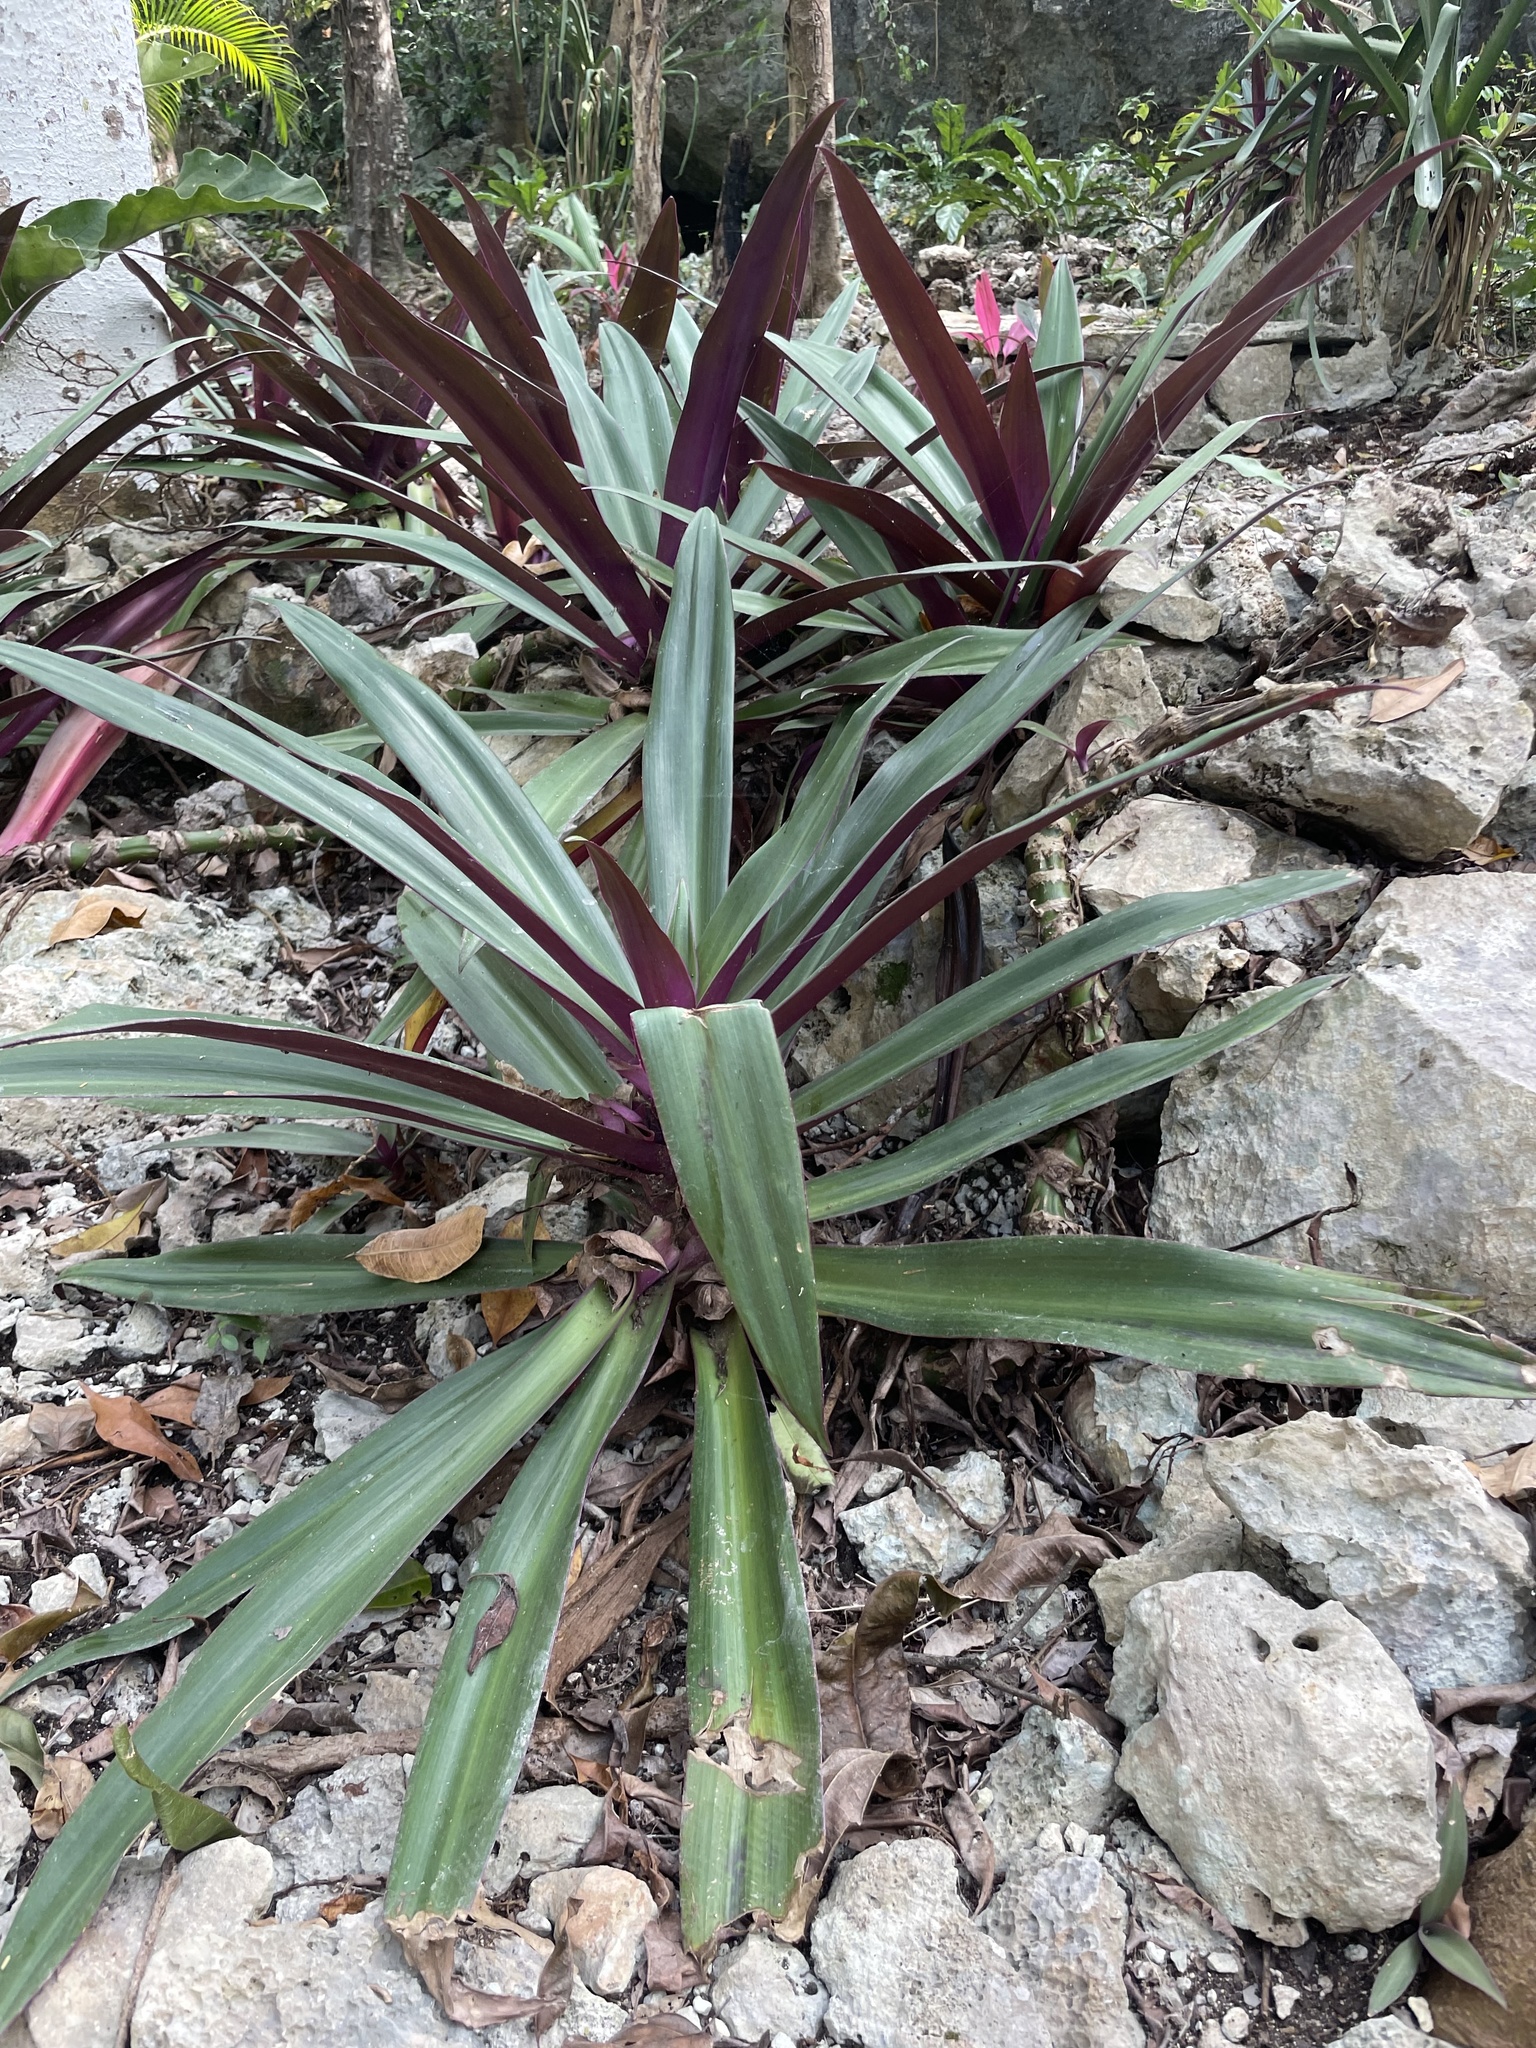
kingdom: Plantae
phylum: Tracheophyta
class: Liliopsida
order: Commelinales
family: Commelinaceae
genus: Tradescantia
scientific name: Tradescantia spathacea
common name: Boatlily
